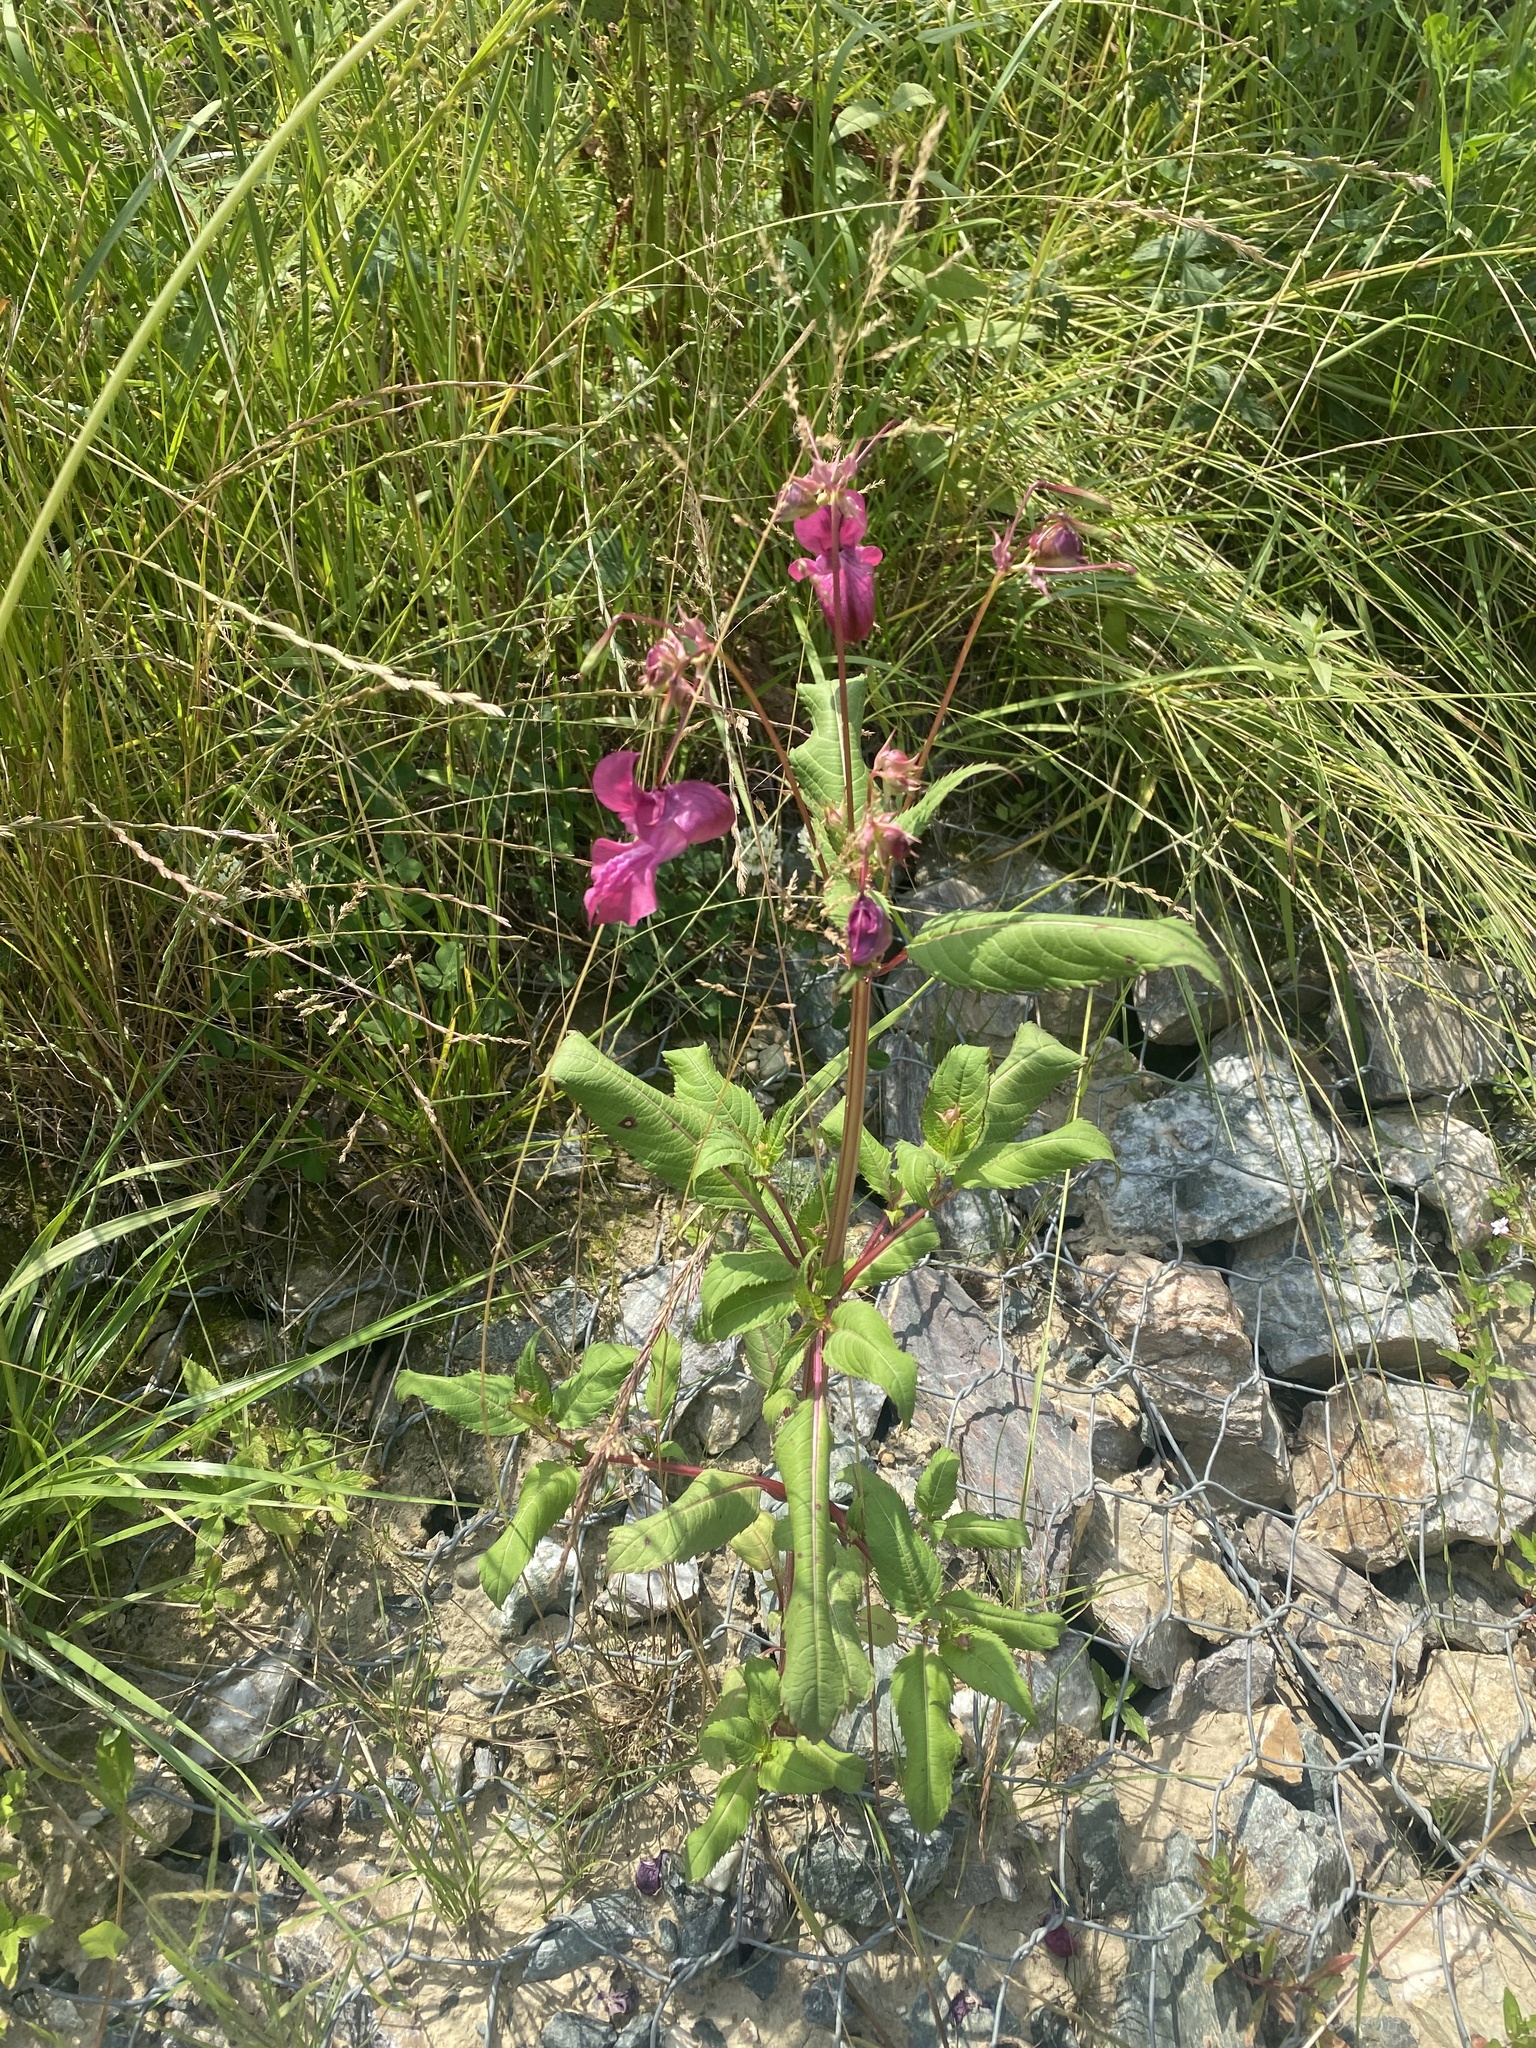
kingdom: Plantae
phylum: Tracheophyta
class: Magnoliopsida
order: Ericales
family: Balsaminaceae
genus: Impatiens
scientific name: Impatiens glandulifera
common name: Himalayan balsam
